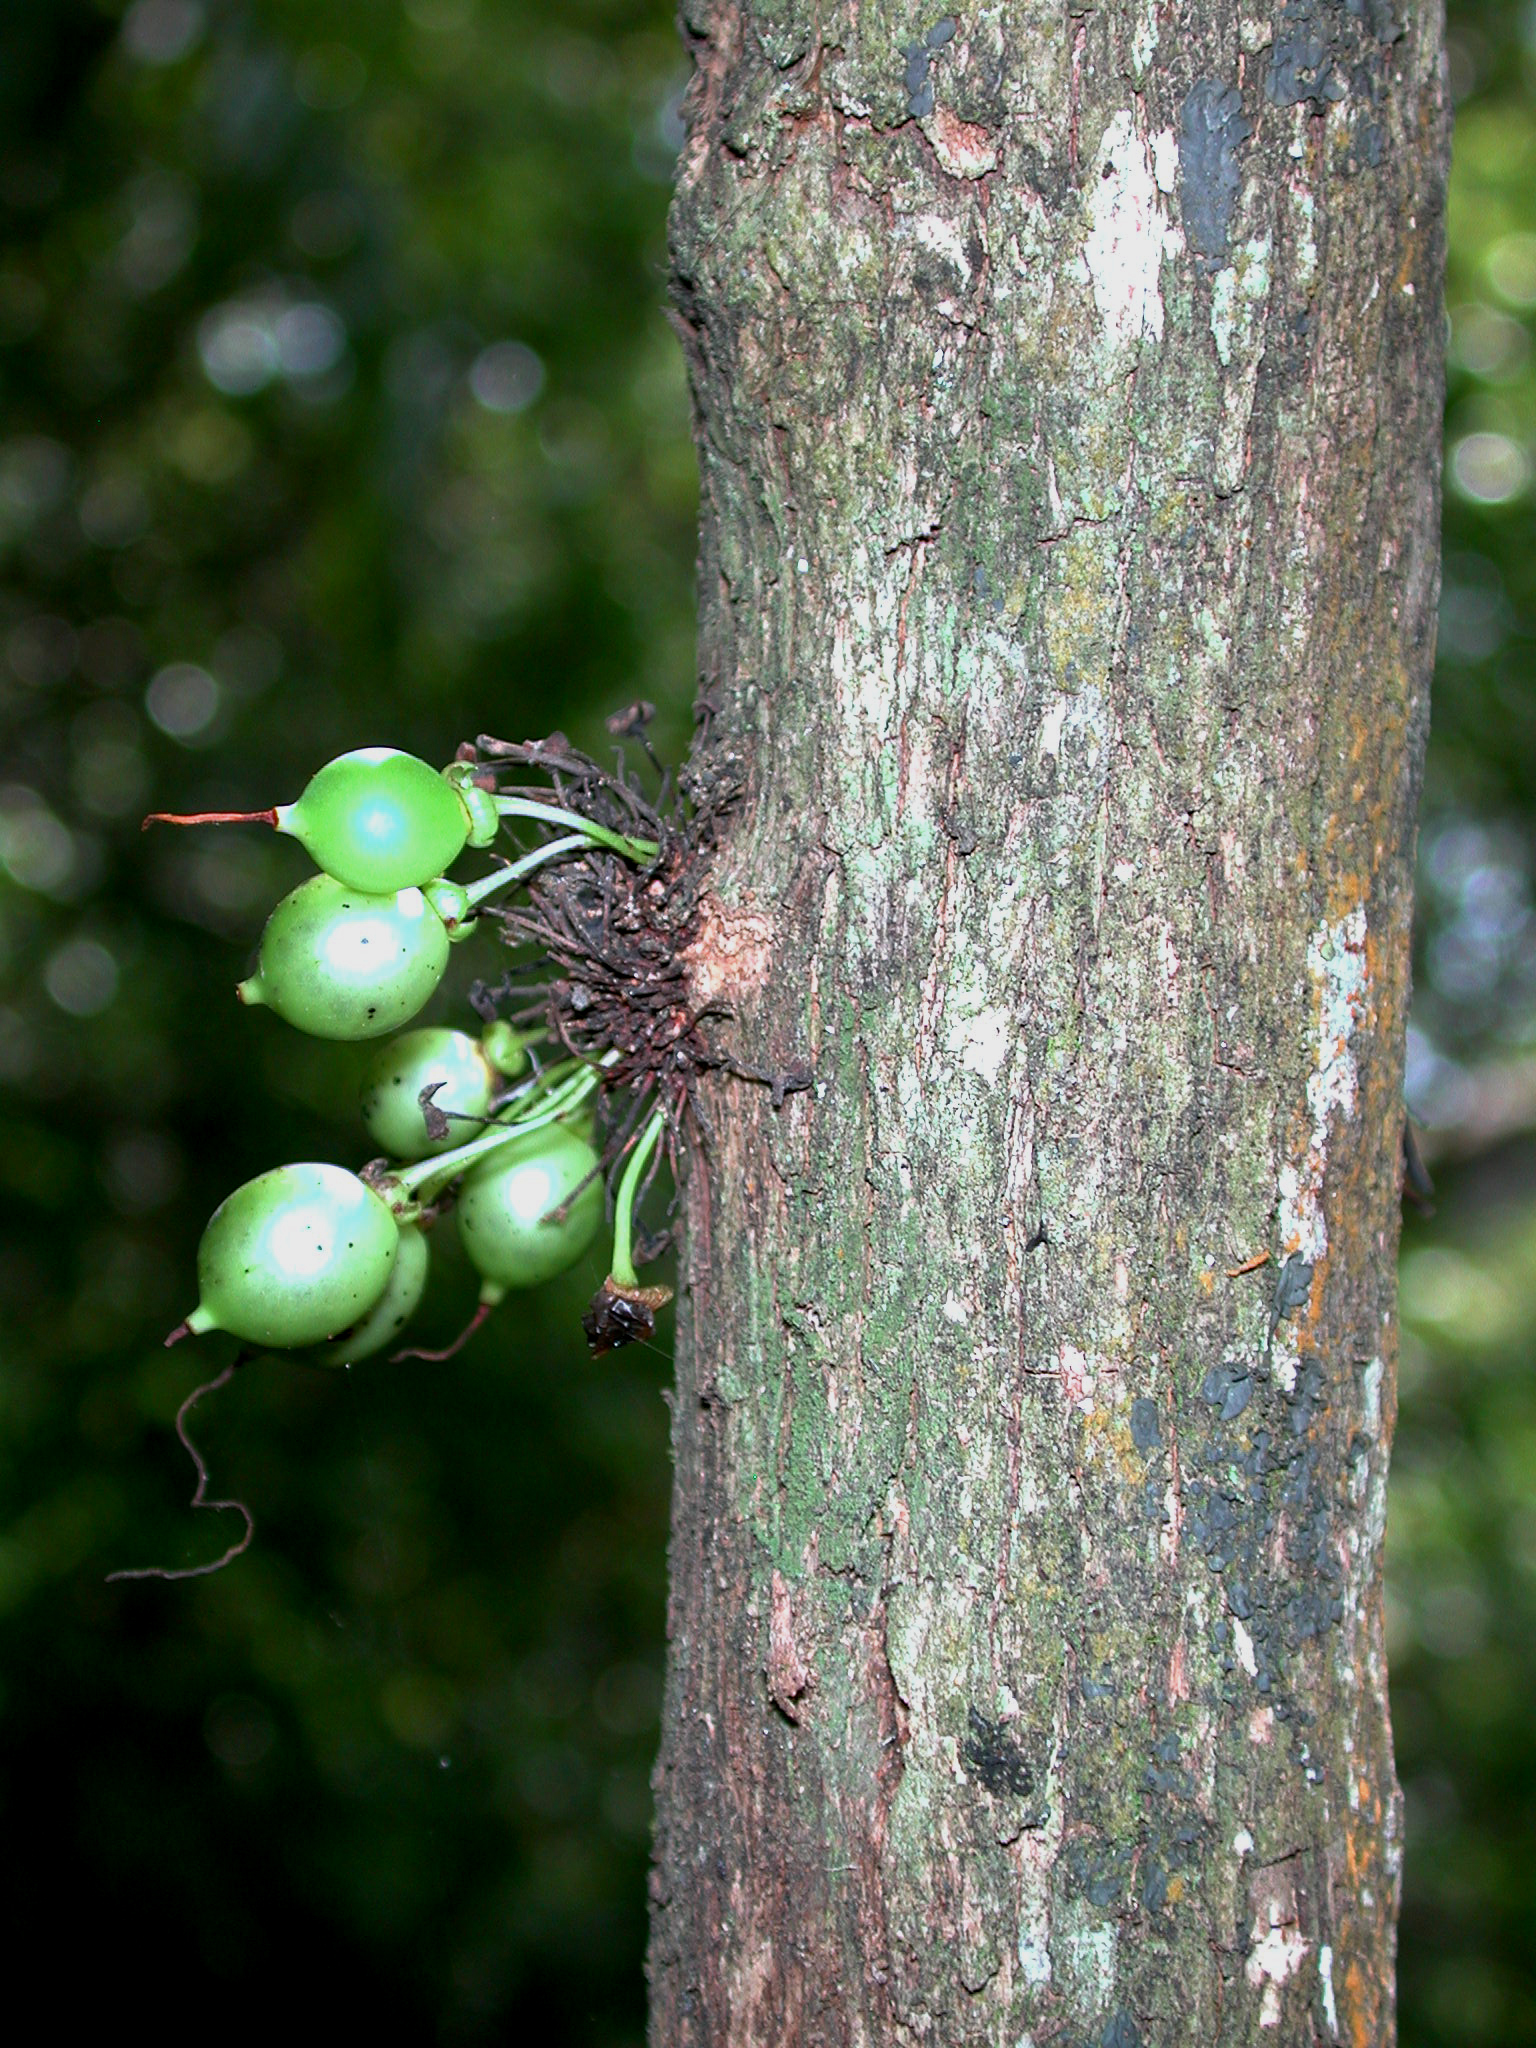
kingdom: Plantae
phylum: Tracheophyta
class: Magnoliopsida
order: Lamiales
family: Stilbaceae
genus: Halleria
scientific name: Halleria lucida
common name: Tree fuschia
